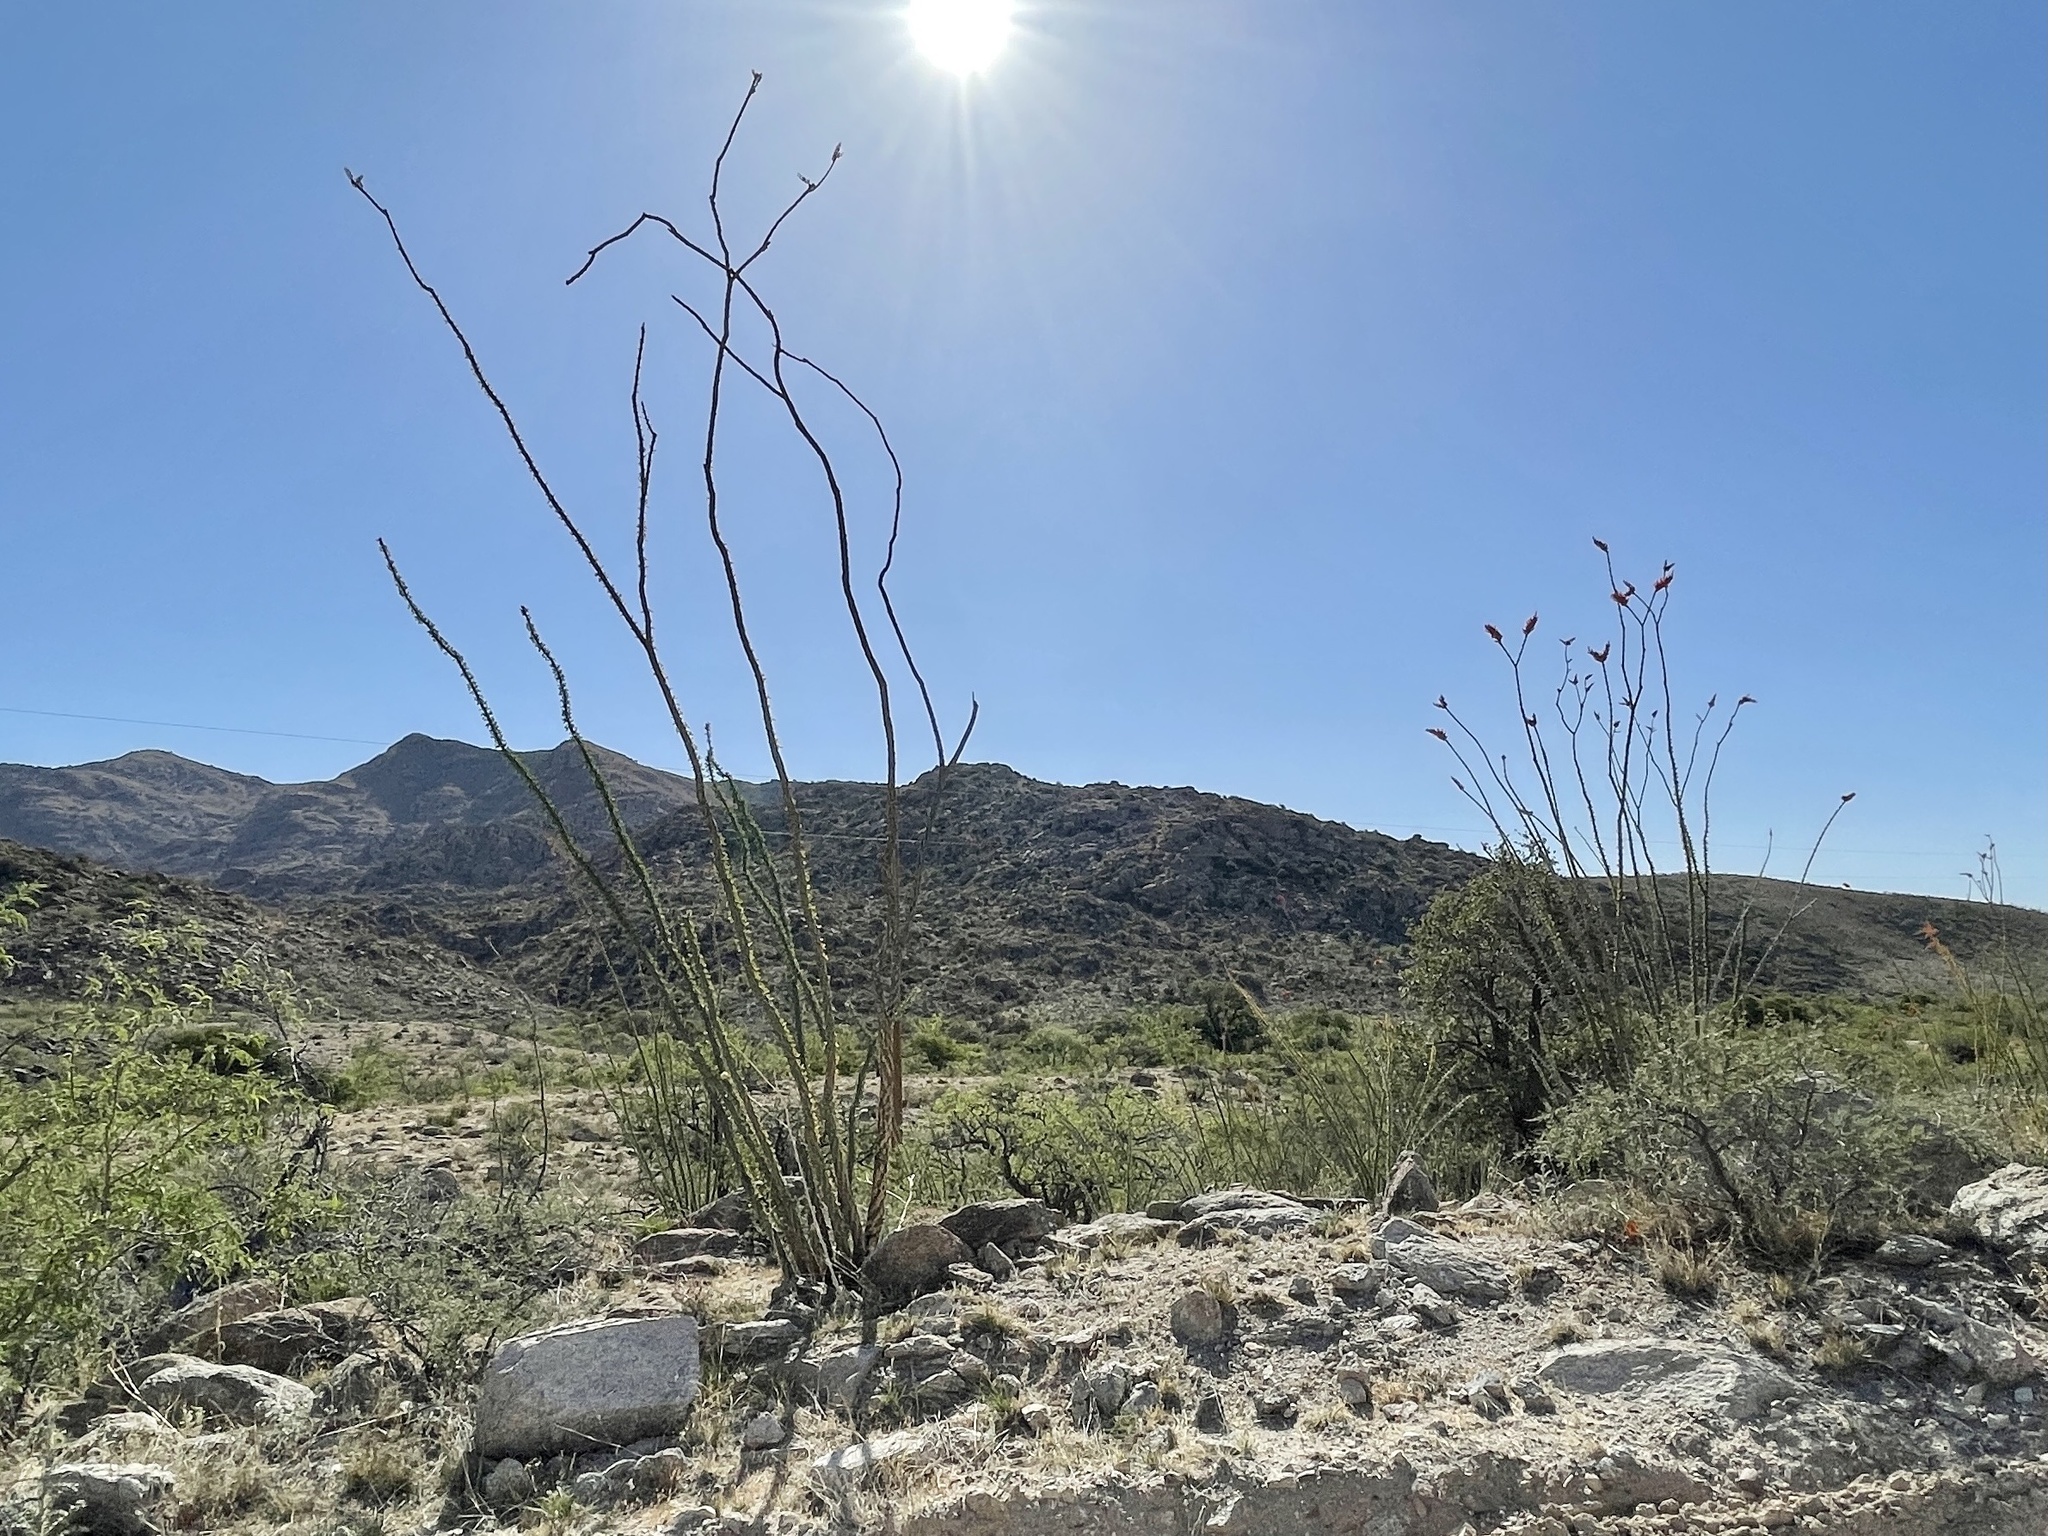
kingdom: Plantae
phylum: Tracheophyta
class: Magnoliopsida
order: Ericales
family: Fouquieriaceae
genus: Fouquieria
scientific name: Fouquieria splendens
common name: Vine-cactus
